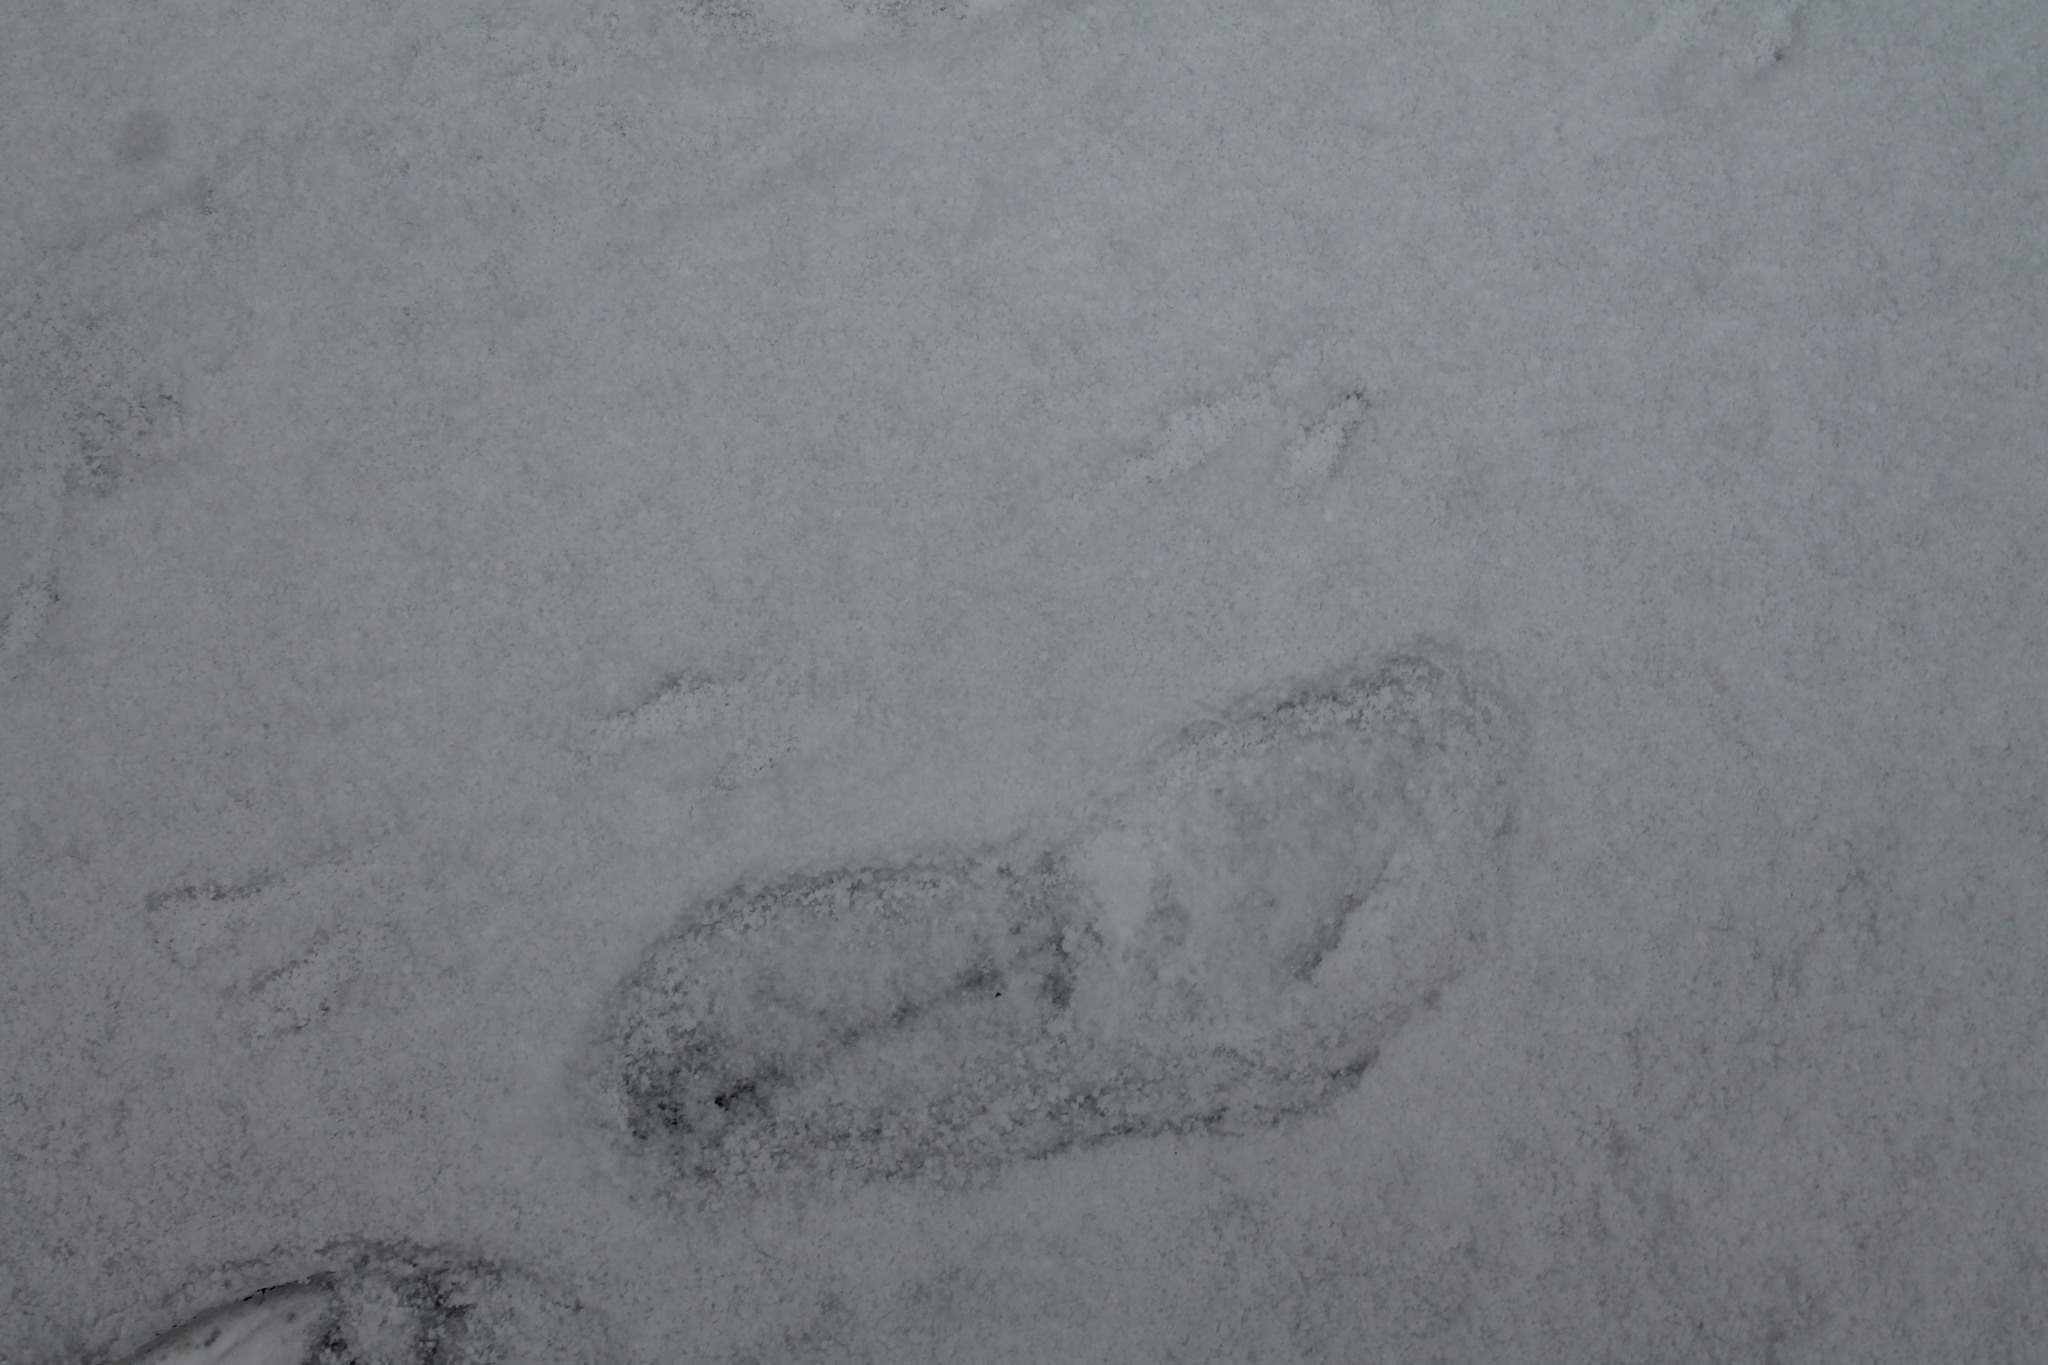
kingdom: Animalia
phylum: Chordata
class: Aves
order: Passeriformes
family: Passerellidae
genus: Zonotrichia
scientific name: Zonotrichia albicollis
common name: White-throated sparrow
